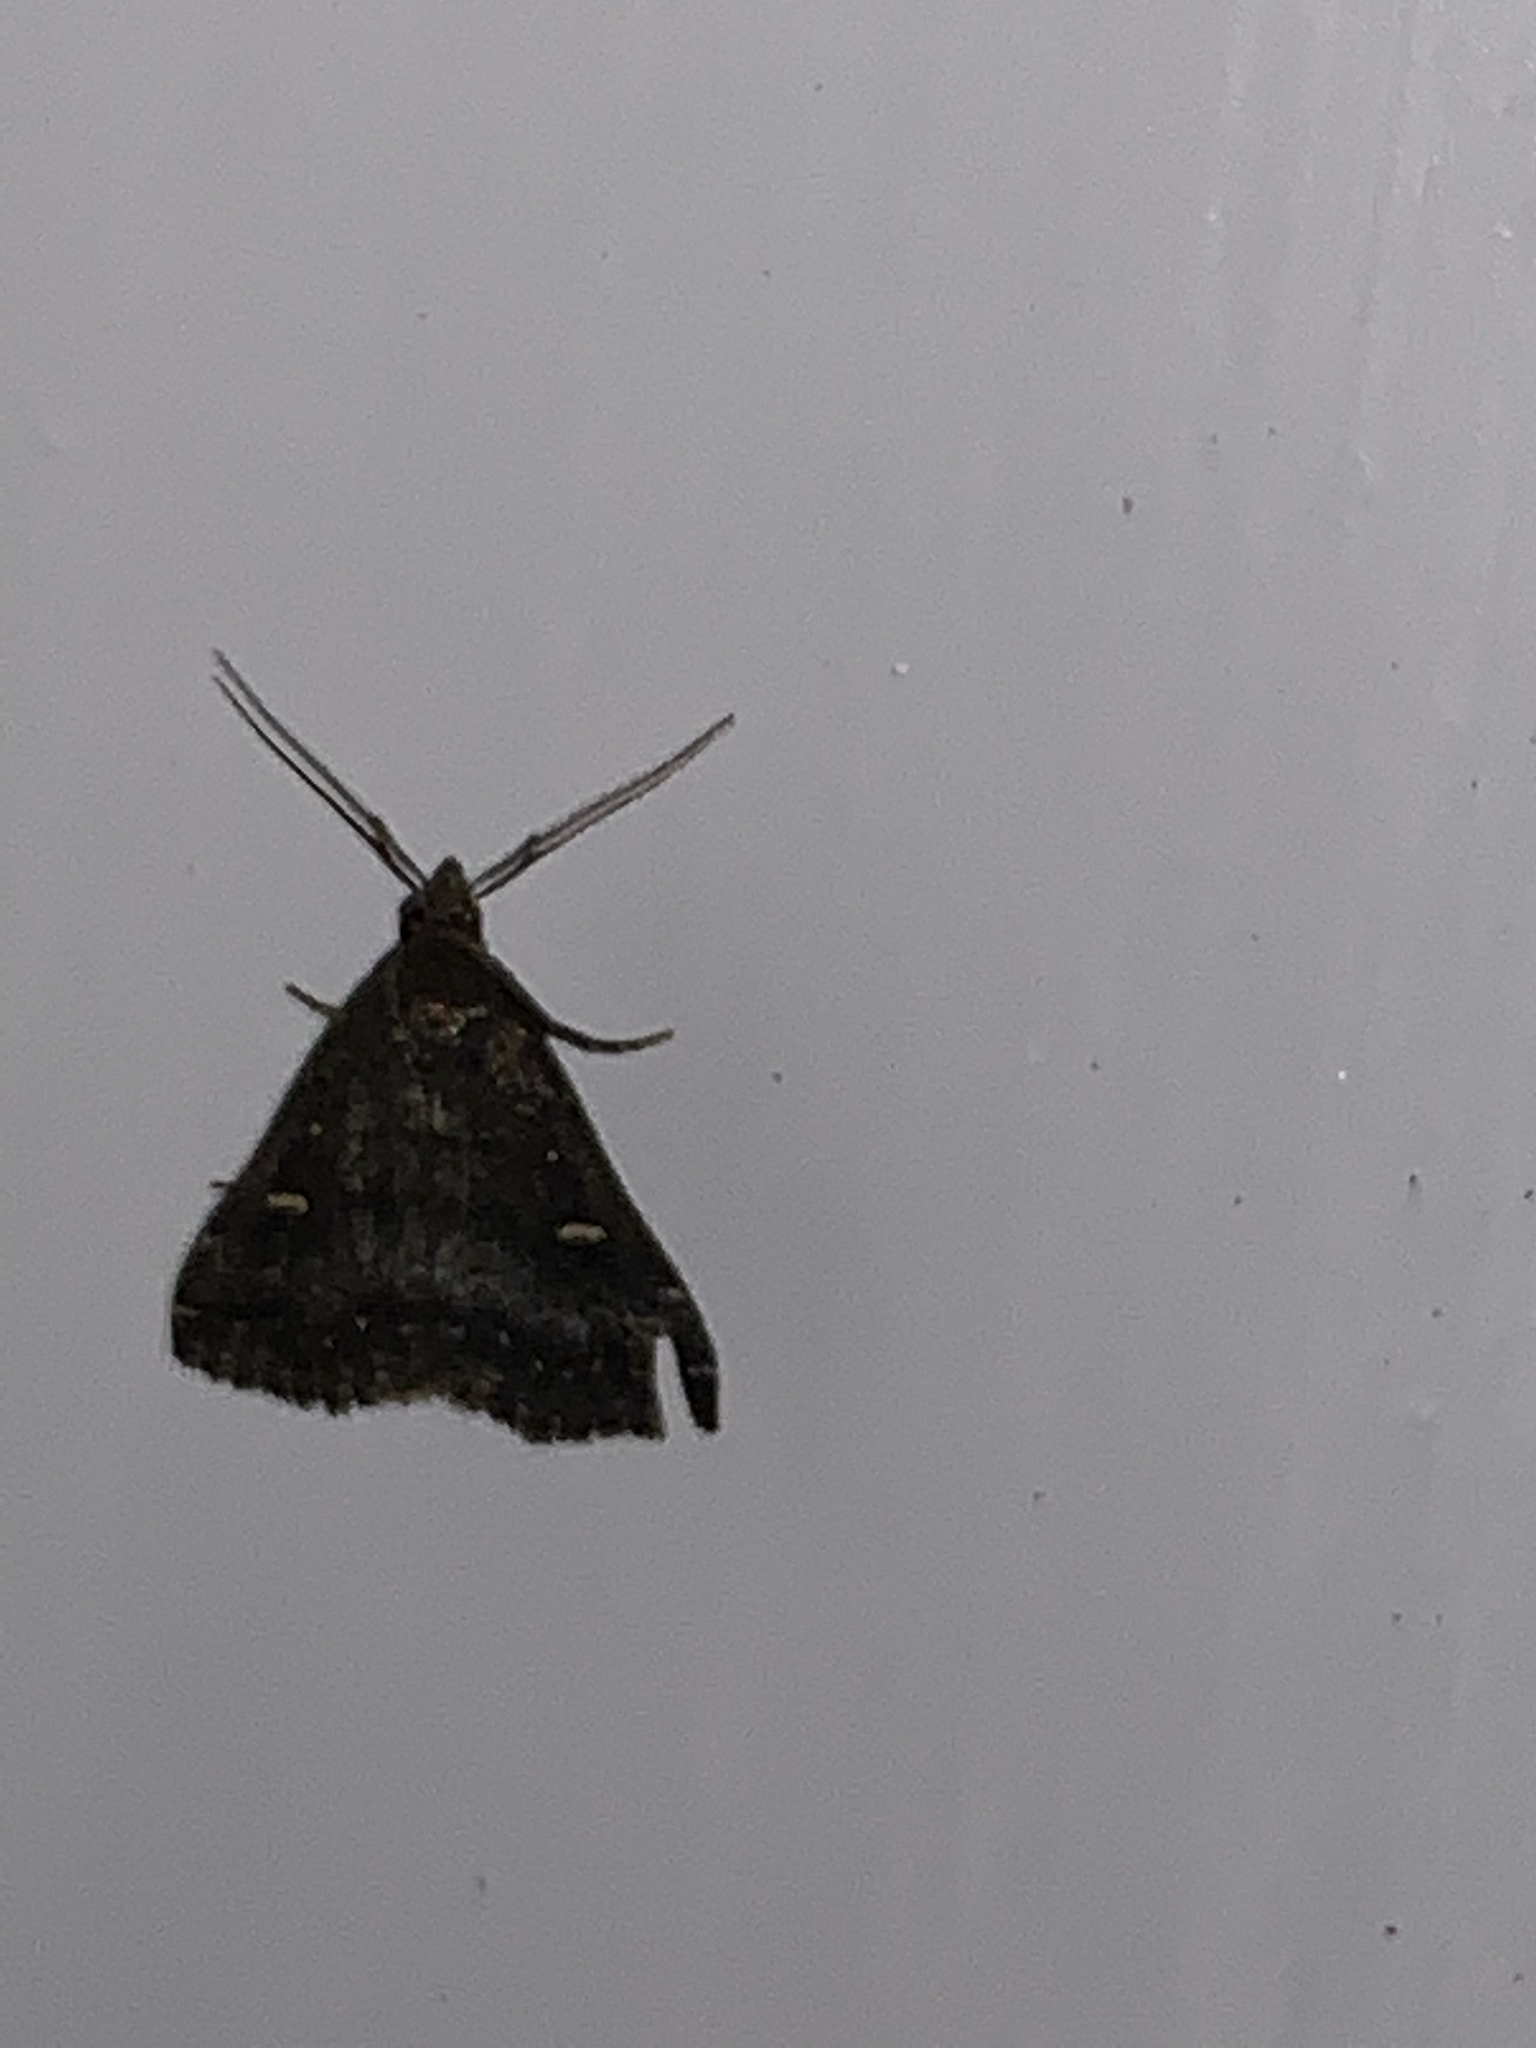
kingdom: Animalia
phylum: Arthropoda
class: Insecta
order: Lepidoptera
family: Erebidae
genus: Tetanolita
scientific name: Tetanolita mynesalis
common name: Smoky tetanolita moth
